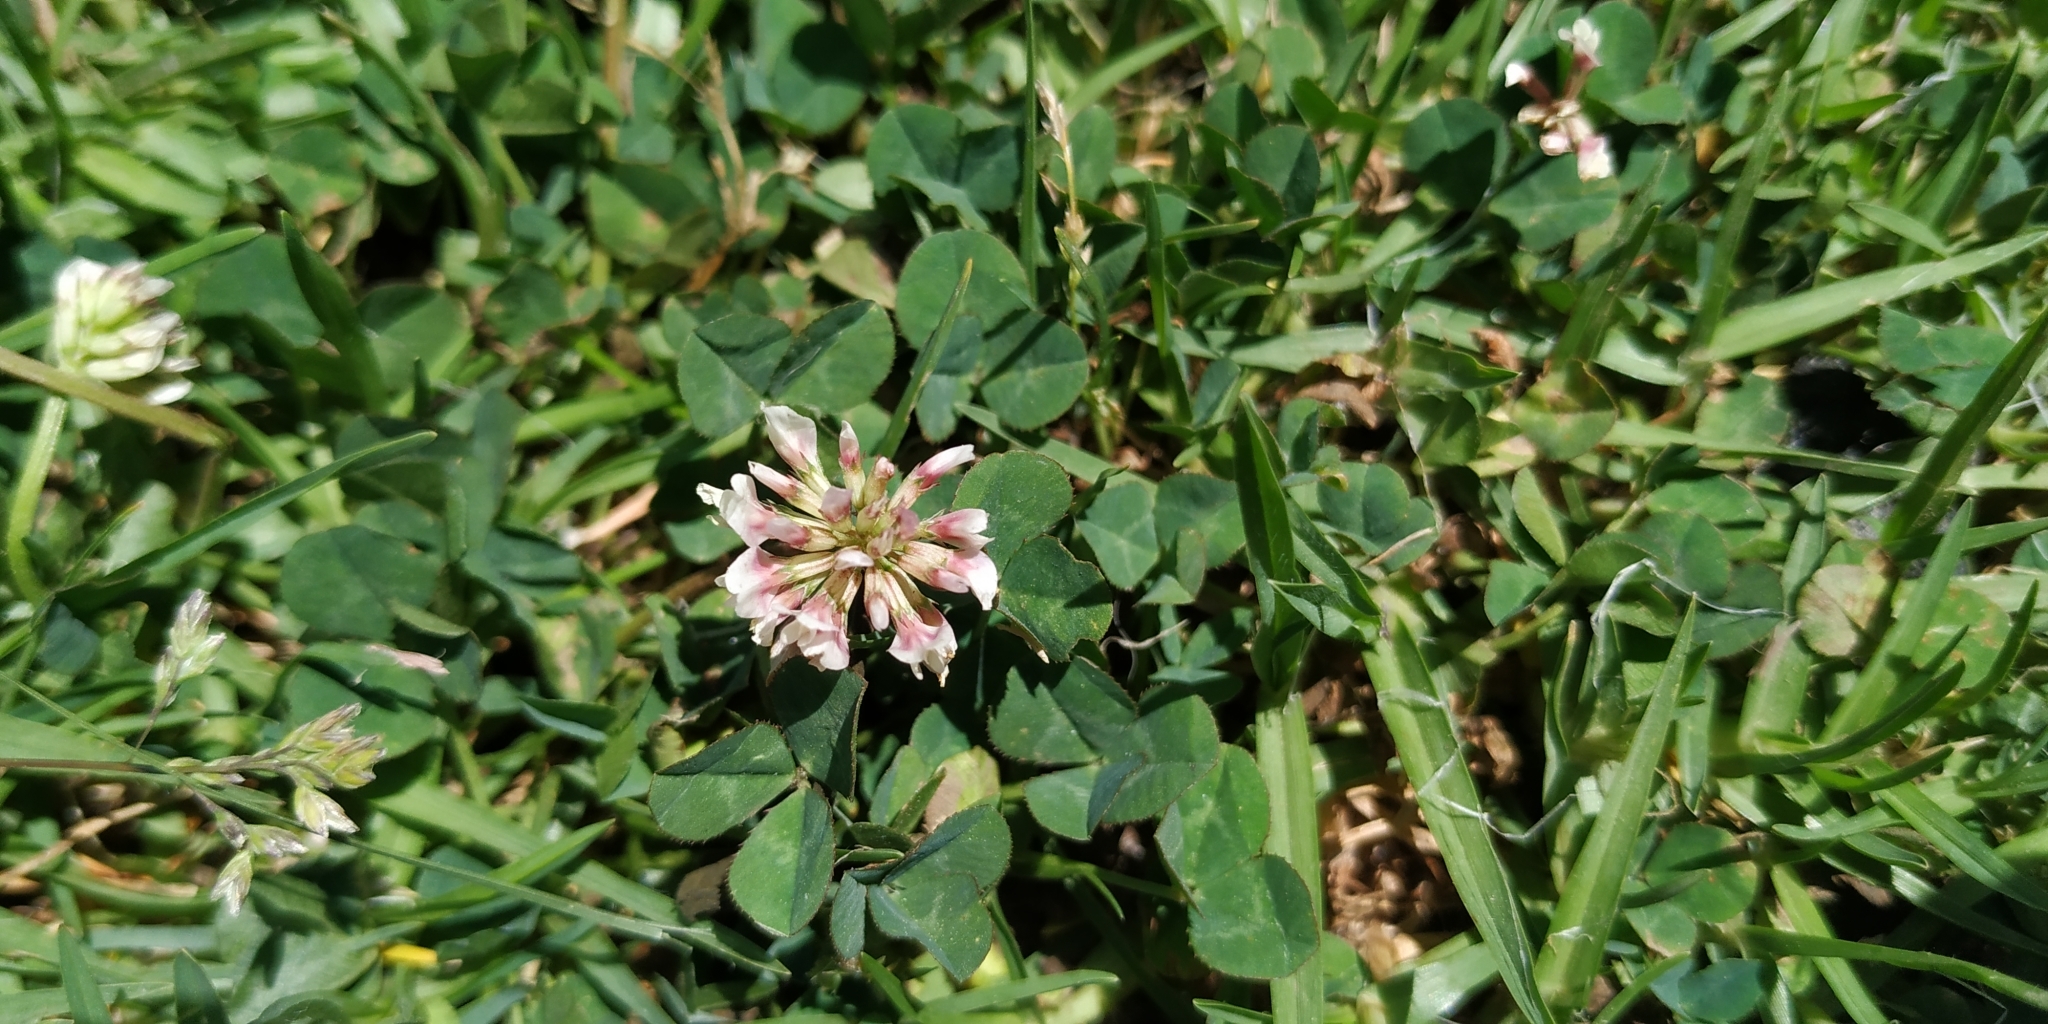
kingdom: Plantae
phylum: Tracheophyta
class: Magnoliopsida
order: Fabales
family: Fabaceae
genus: Trifolium
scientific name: Trifolium repens
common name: White clover
